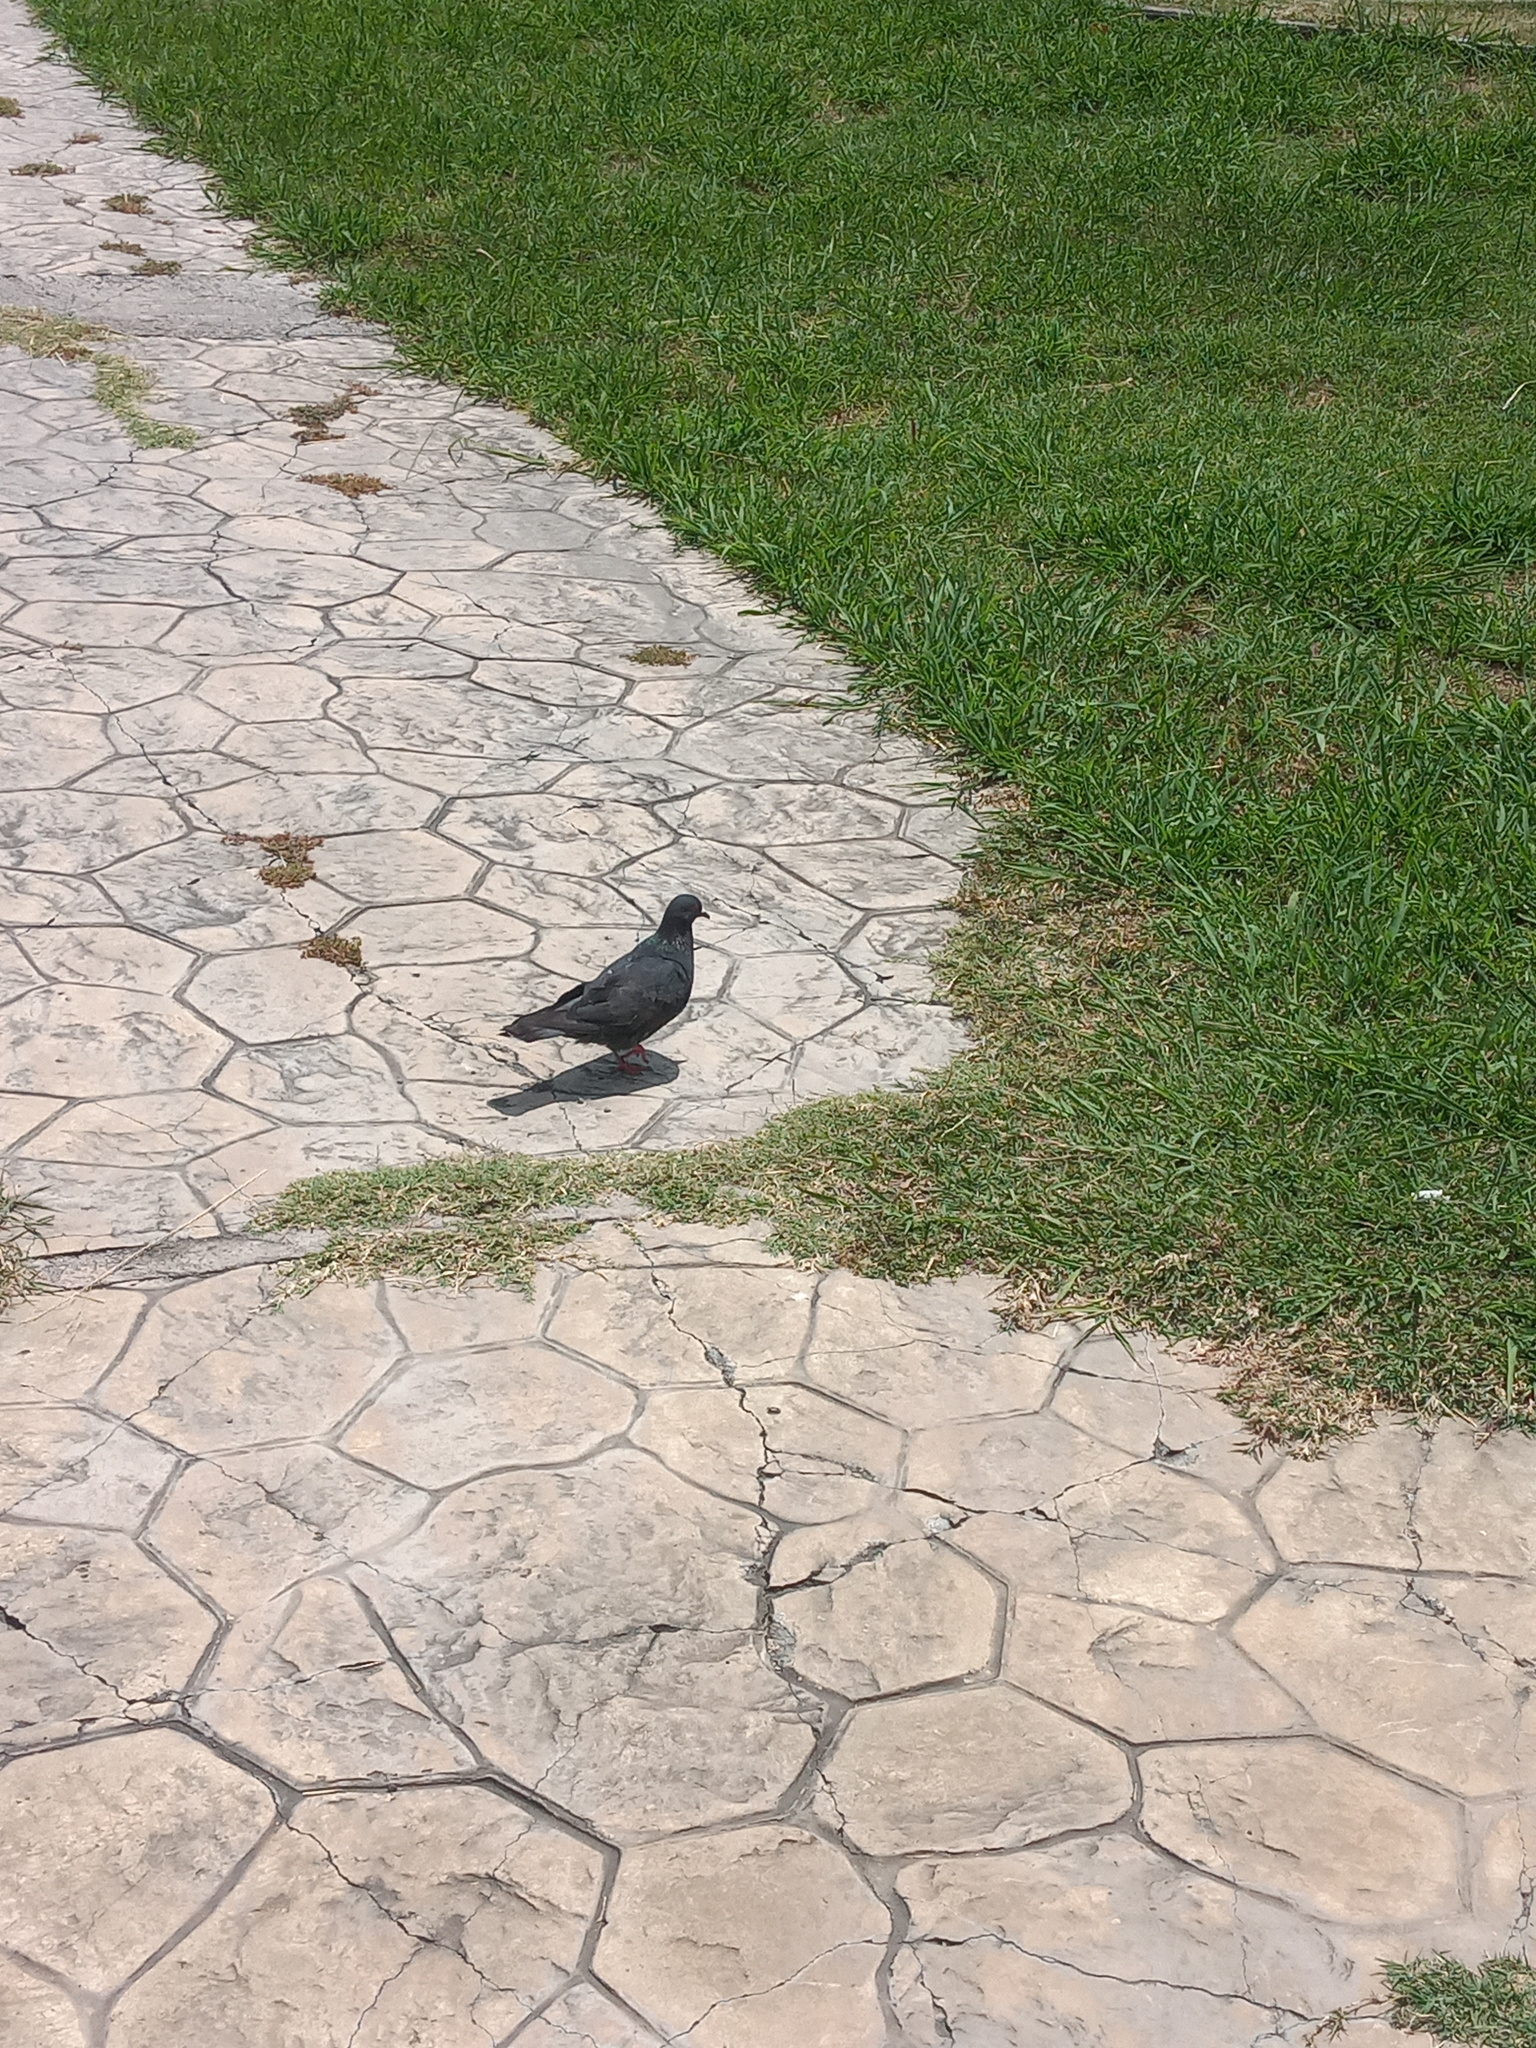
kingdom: Animalia
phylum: Chordata
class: Aves
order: Columbiformes
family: Columbidae
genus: Columba
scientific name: Columba livia
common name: Rock pigeon
